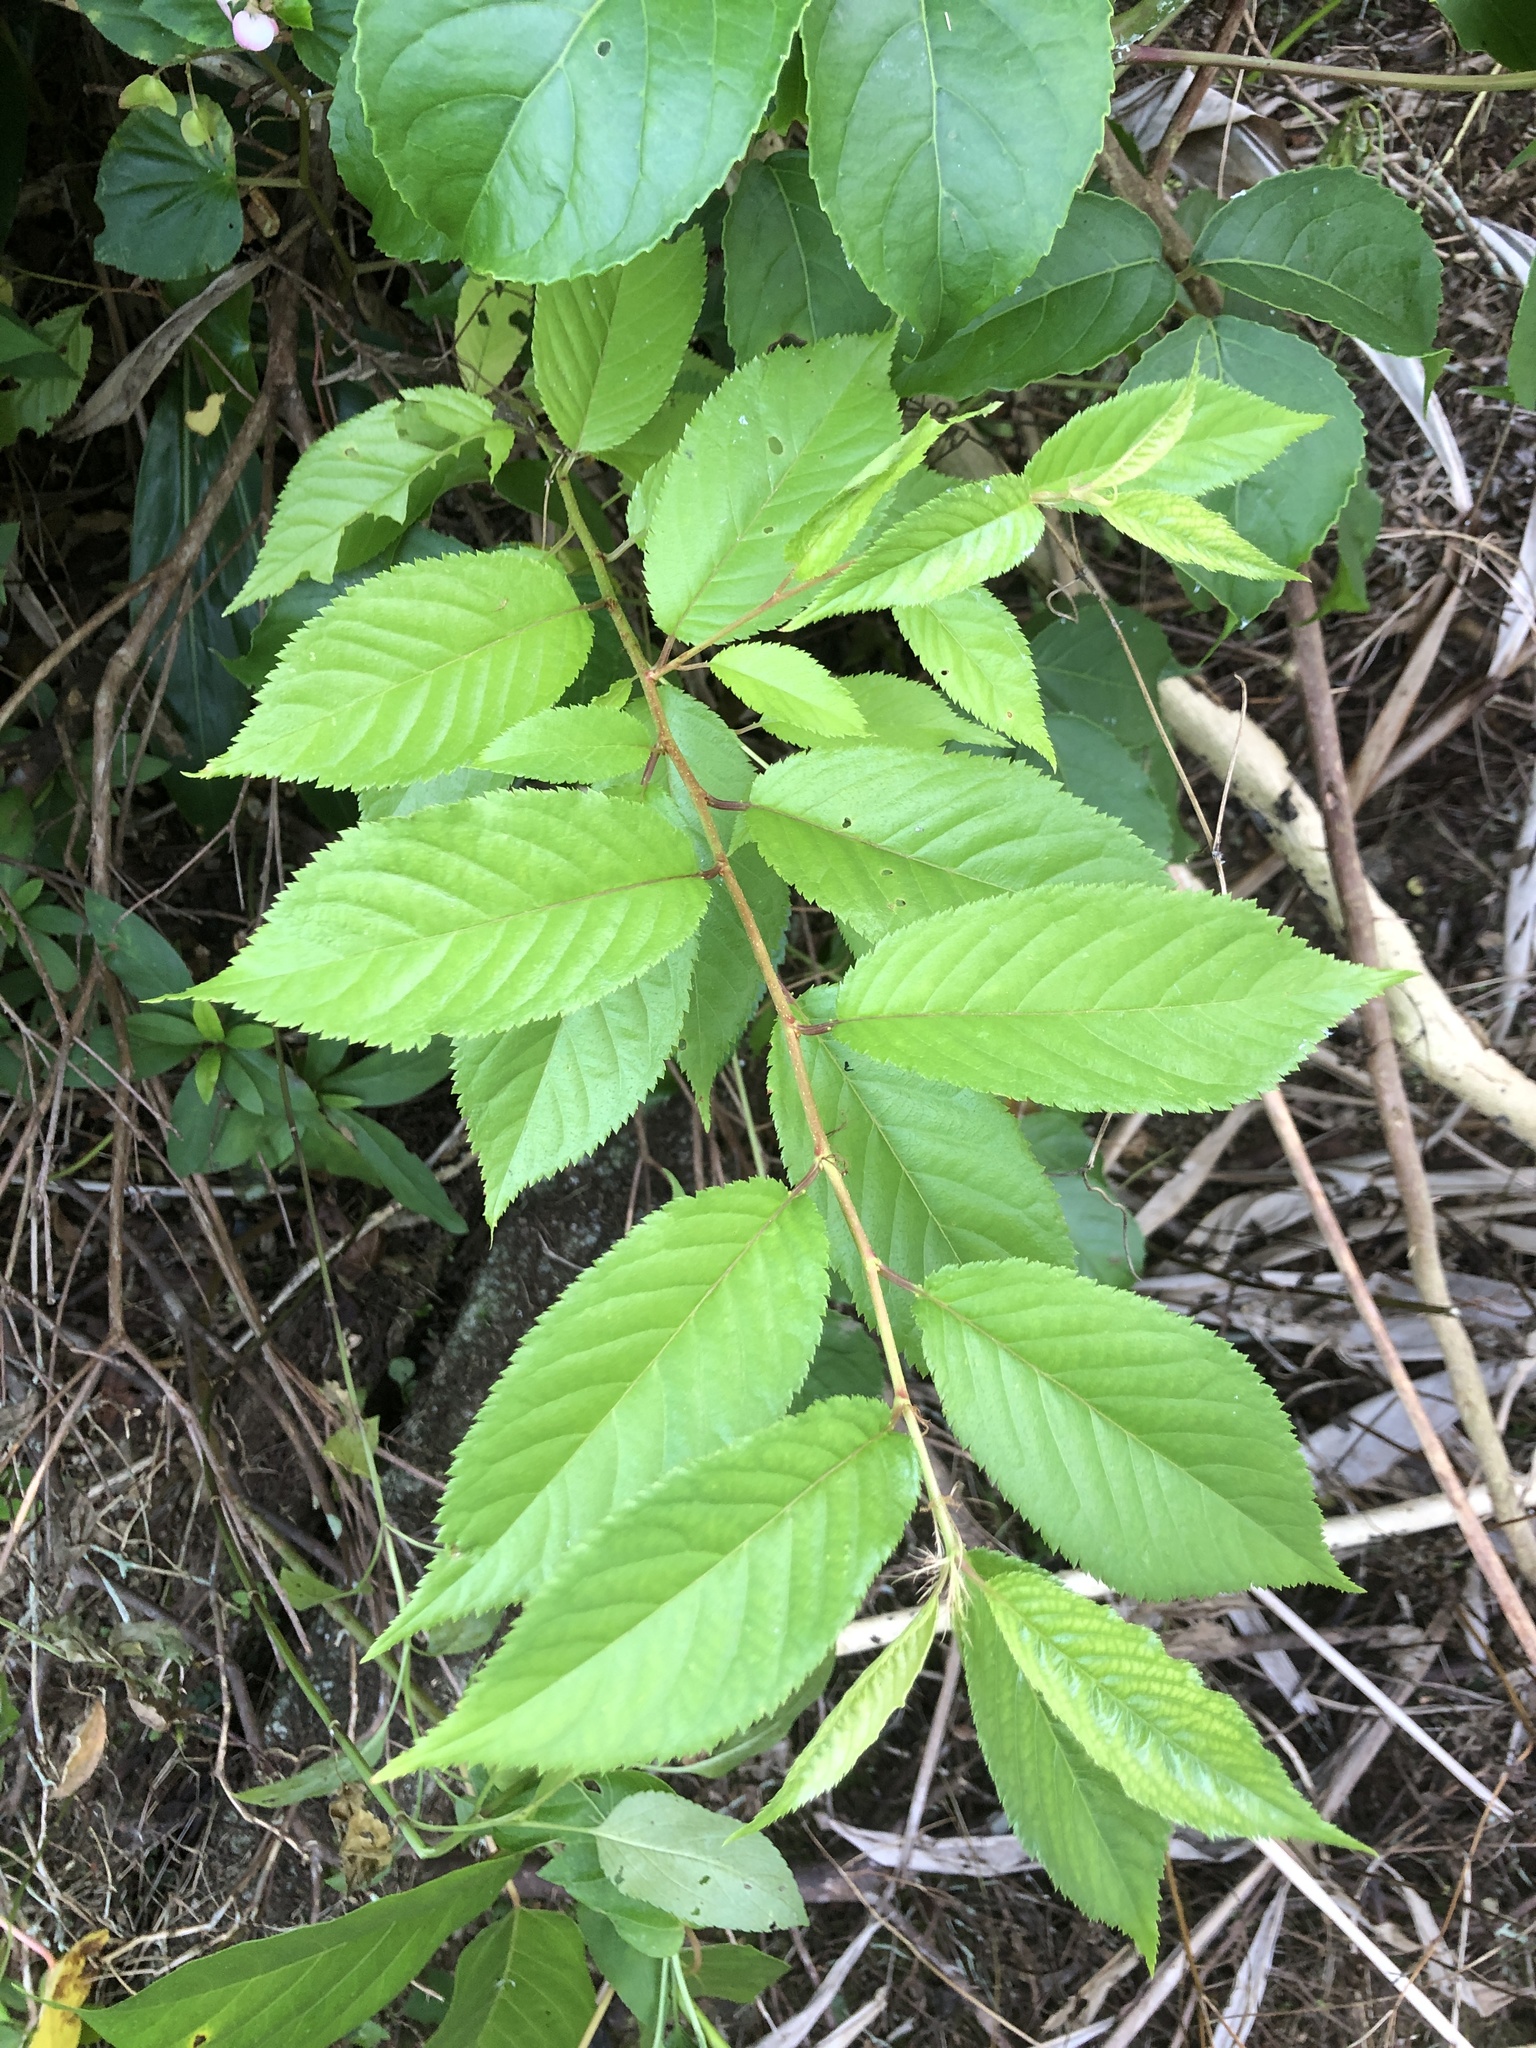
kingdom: Plantae
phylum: Tracheophyta
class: Magnoliopsida
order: Rosales
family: Rosaceae
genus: Prunus
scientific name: Prunus campanulata
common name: Taiwan flowering cherry
